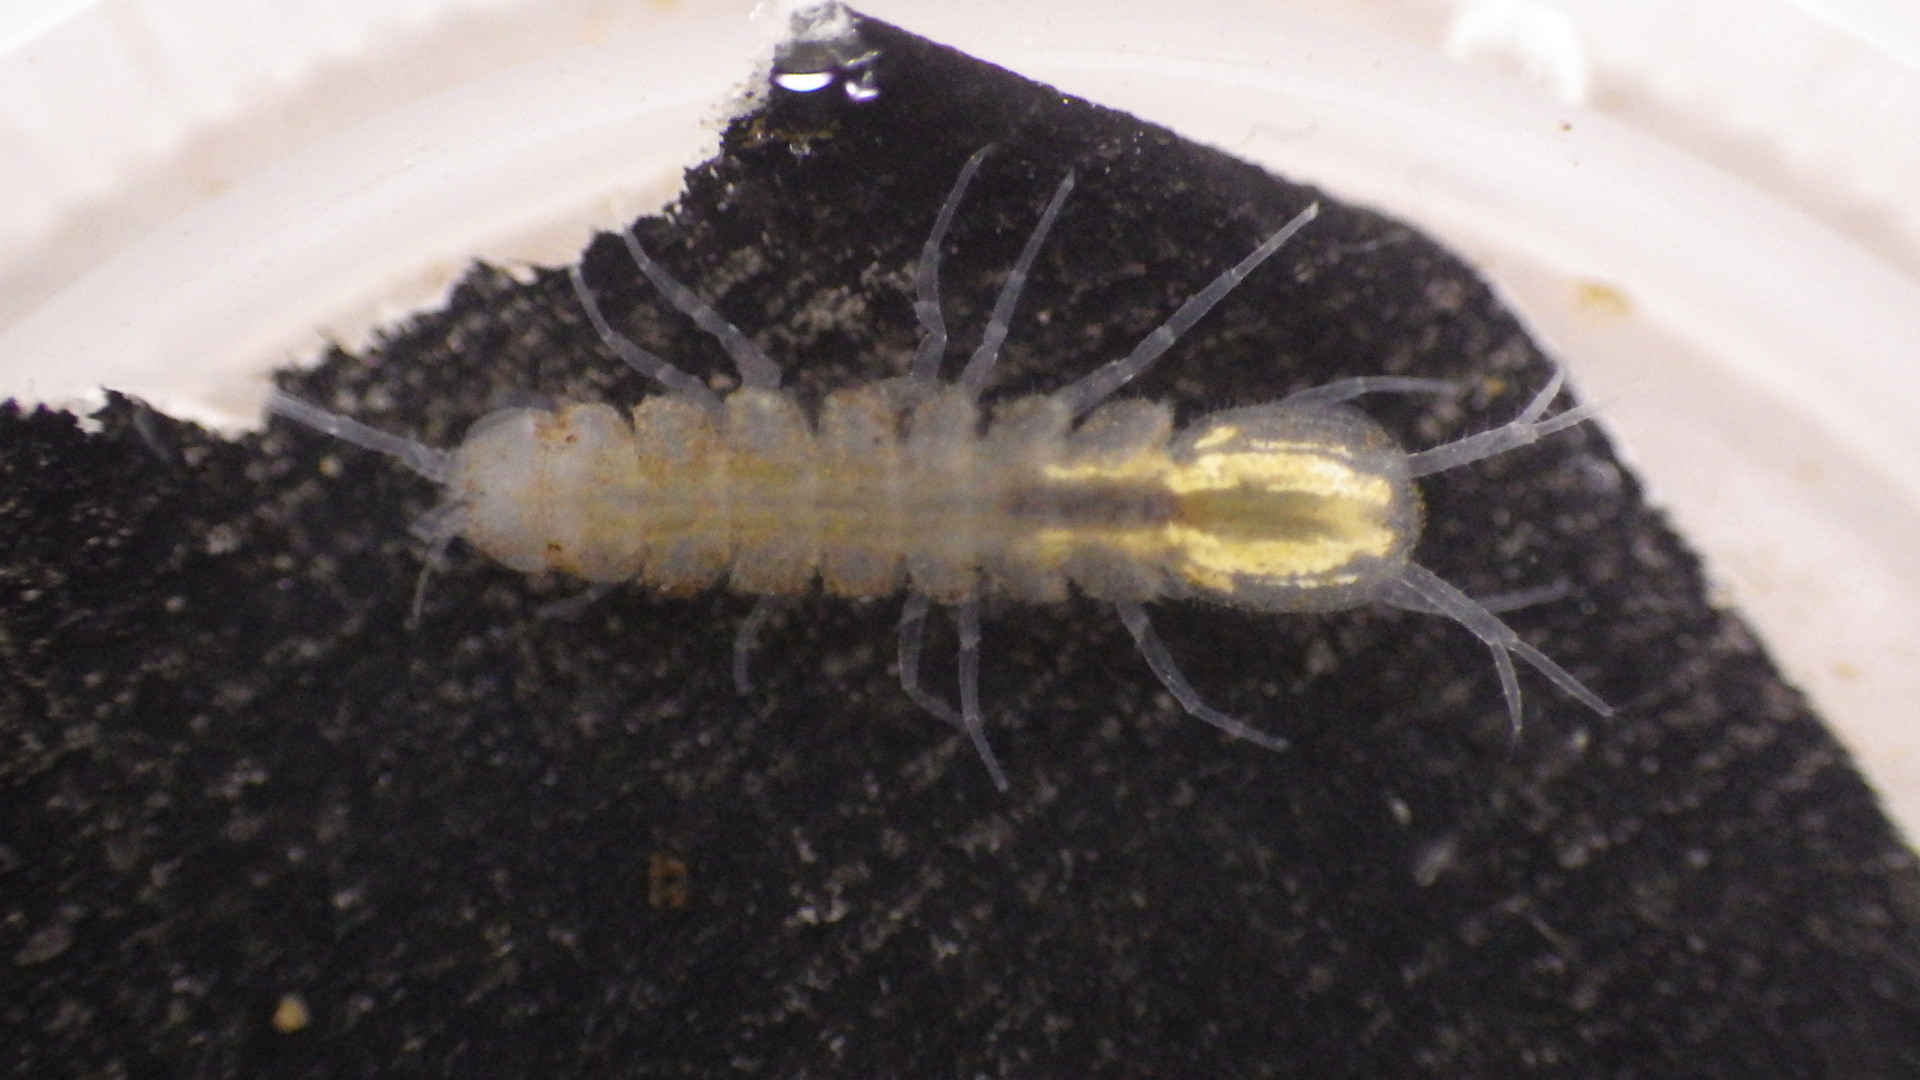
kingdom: Animalia
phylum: Arthropoda
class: Malacostraca
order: Isopoda
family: Asellidae
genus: Caecidotea
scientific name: Caecidotea pricei
